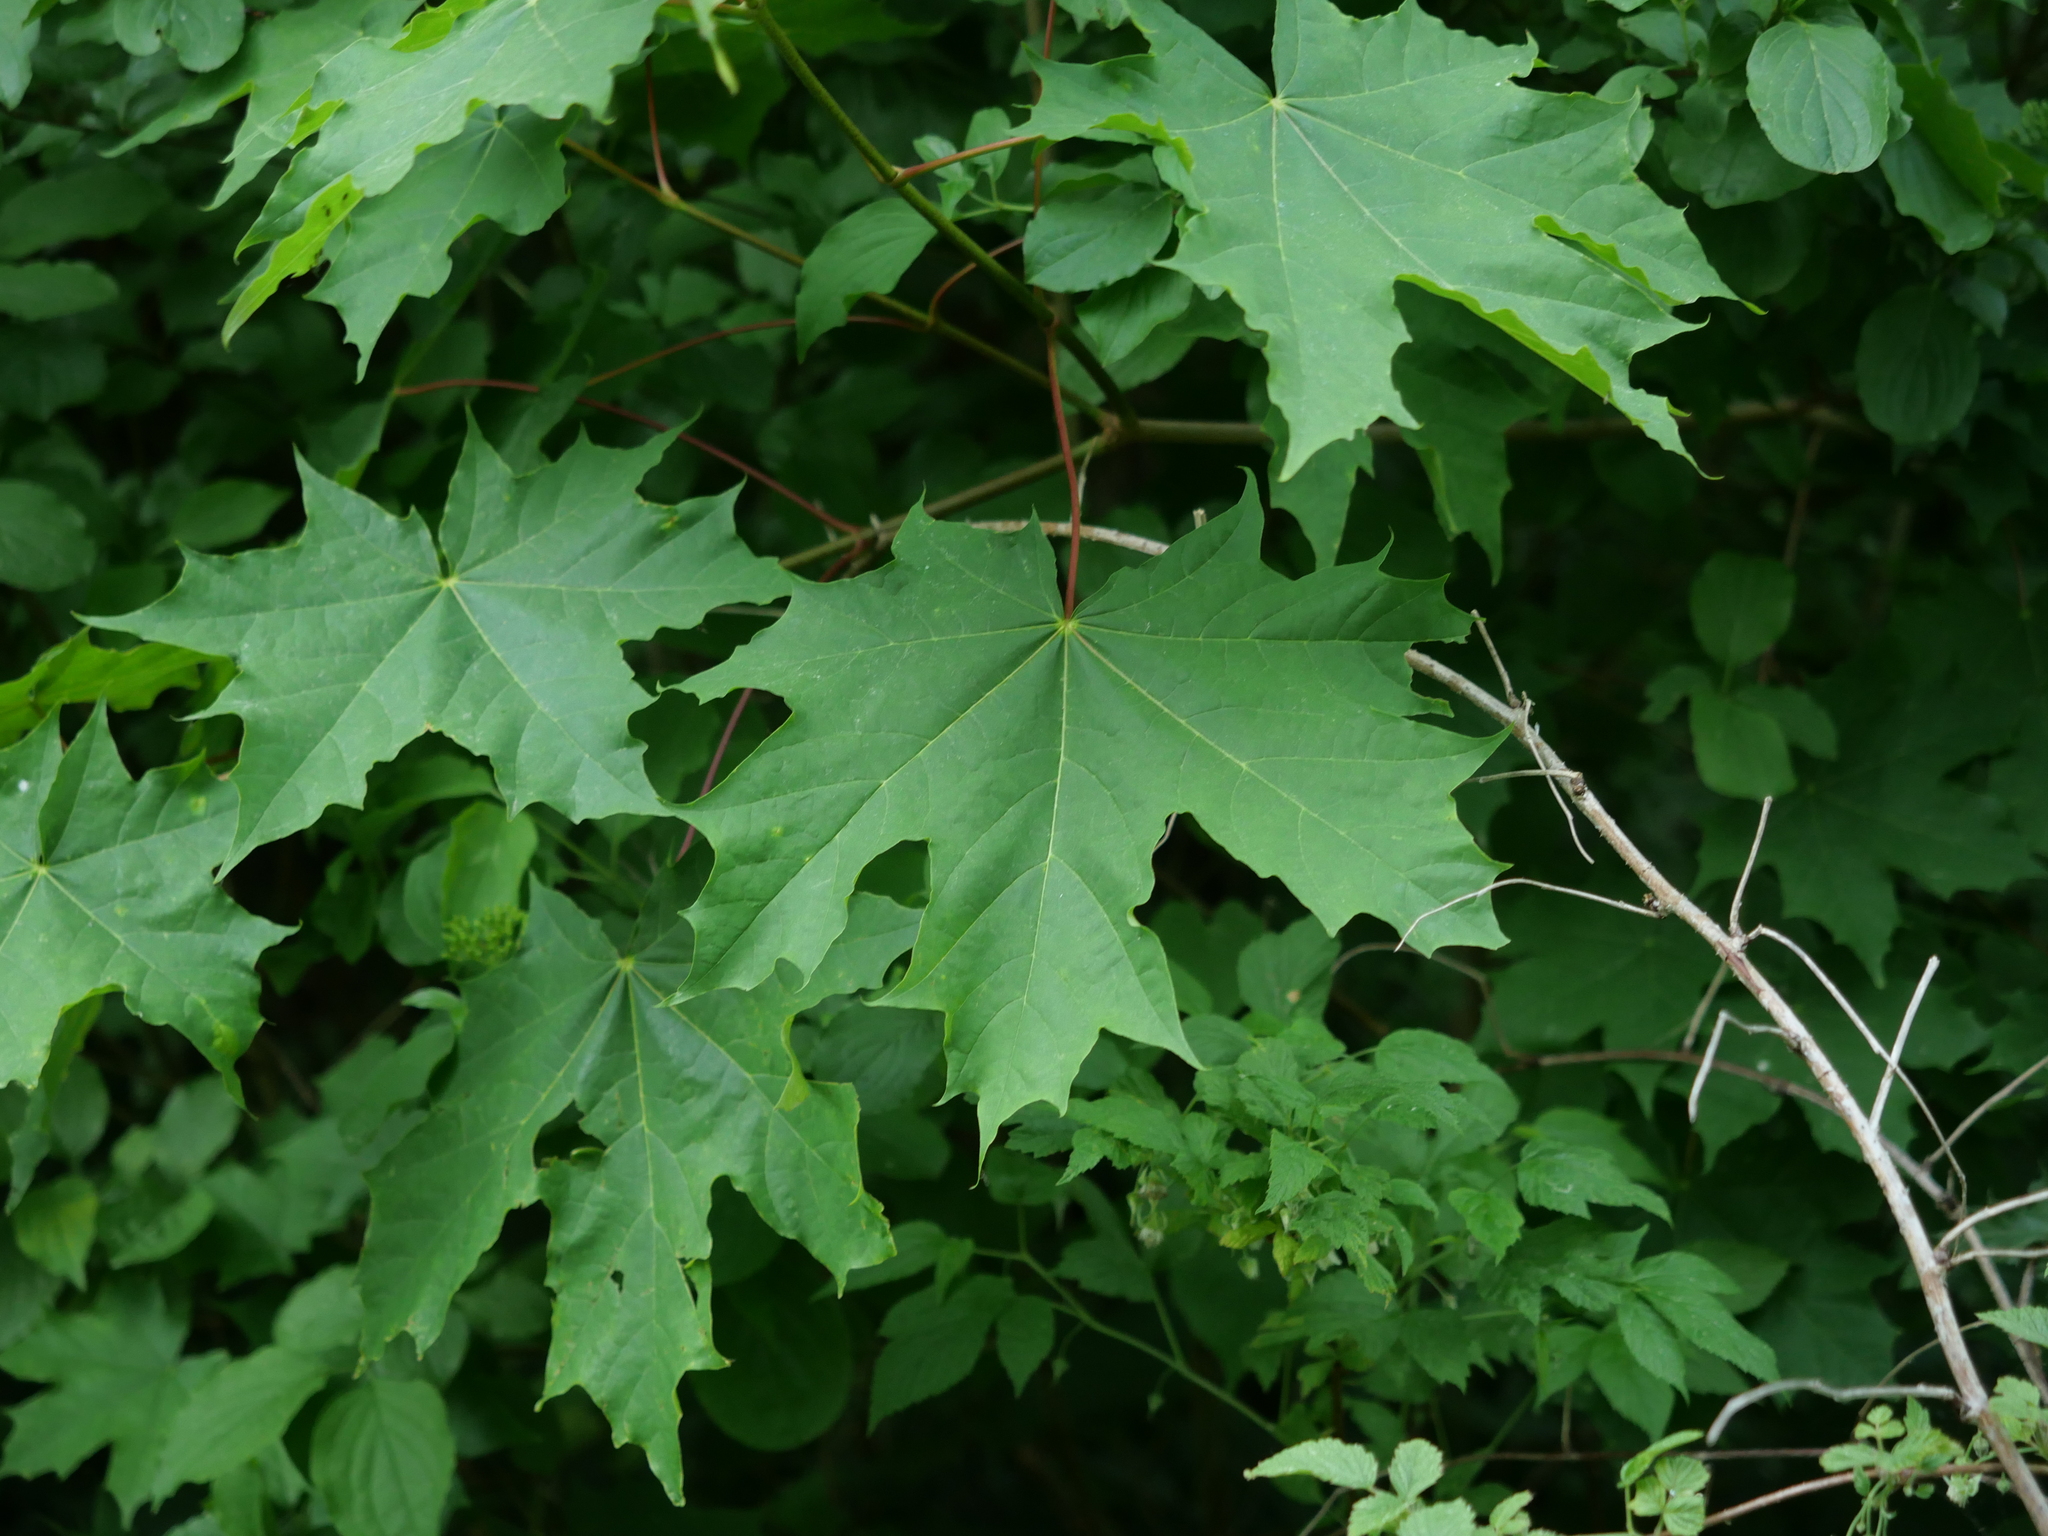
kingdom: Plantae
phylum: Tracheophyta
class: Magnoliopsida
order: Sapindales
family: Sapindaceae
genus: Acer
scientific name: Acer platanoides
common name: Norway maple
